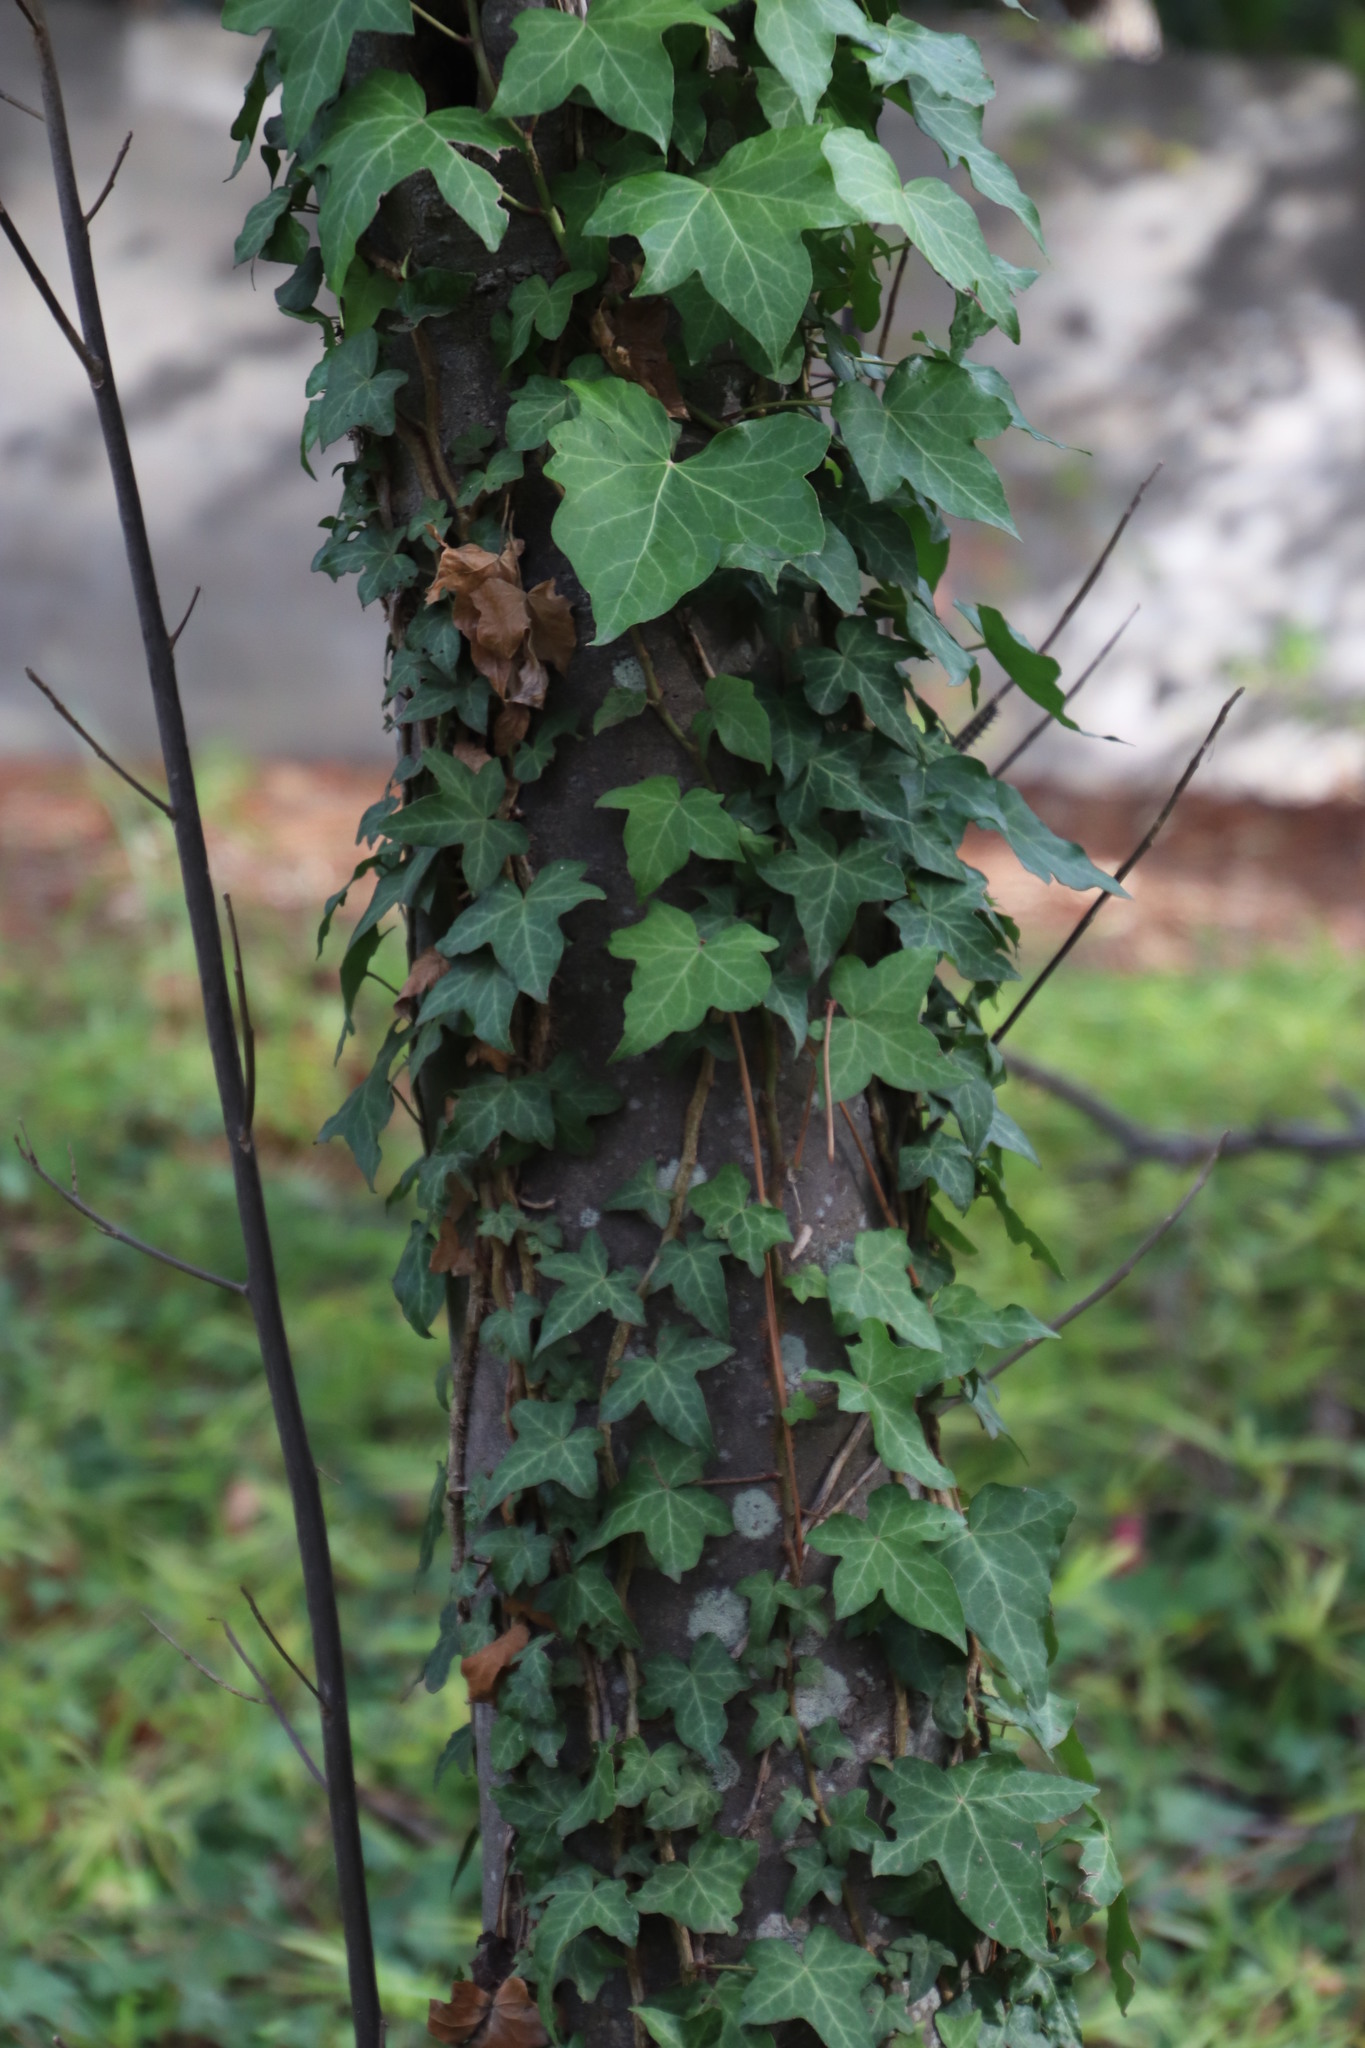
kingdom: Plantae
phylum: Tracheophyta
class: Magnoliopsida
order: Apiales
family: Araliaceae
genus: Hedera
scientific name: Hedera helix
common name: Ivy
